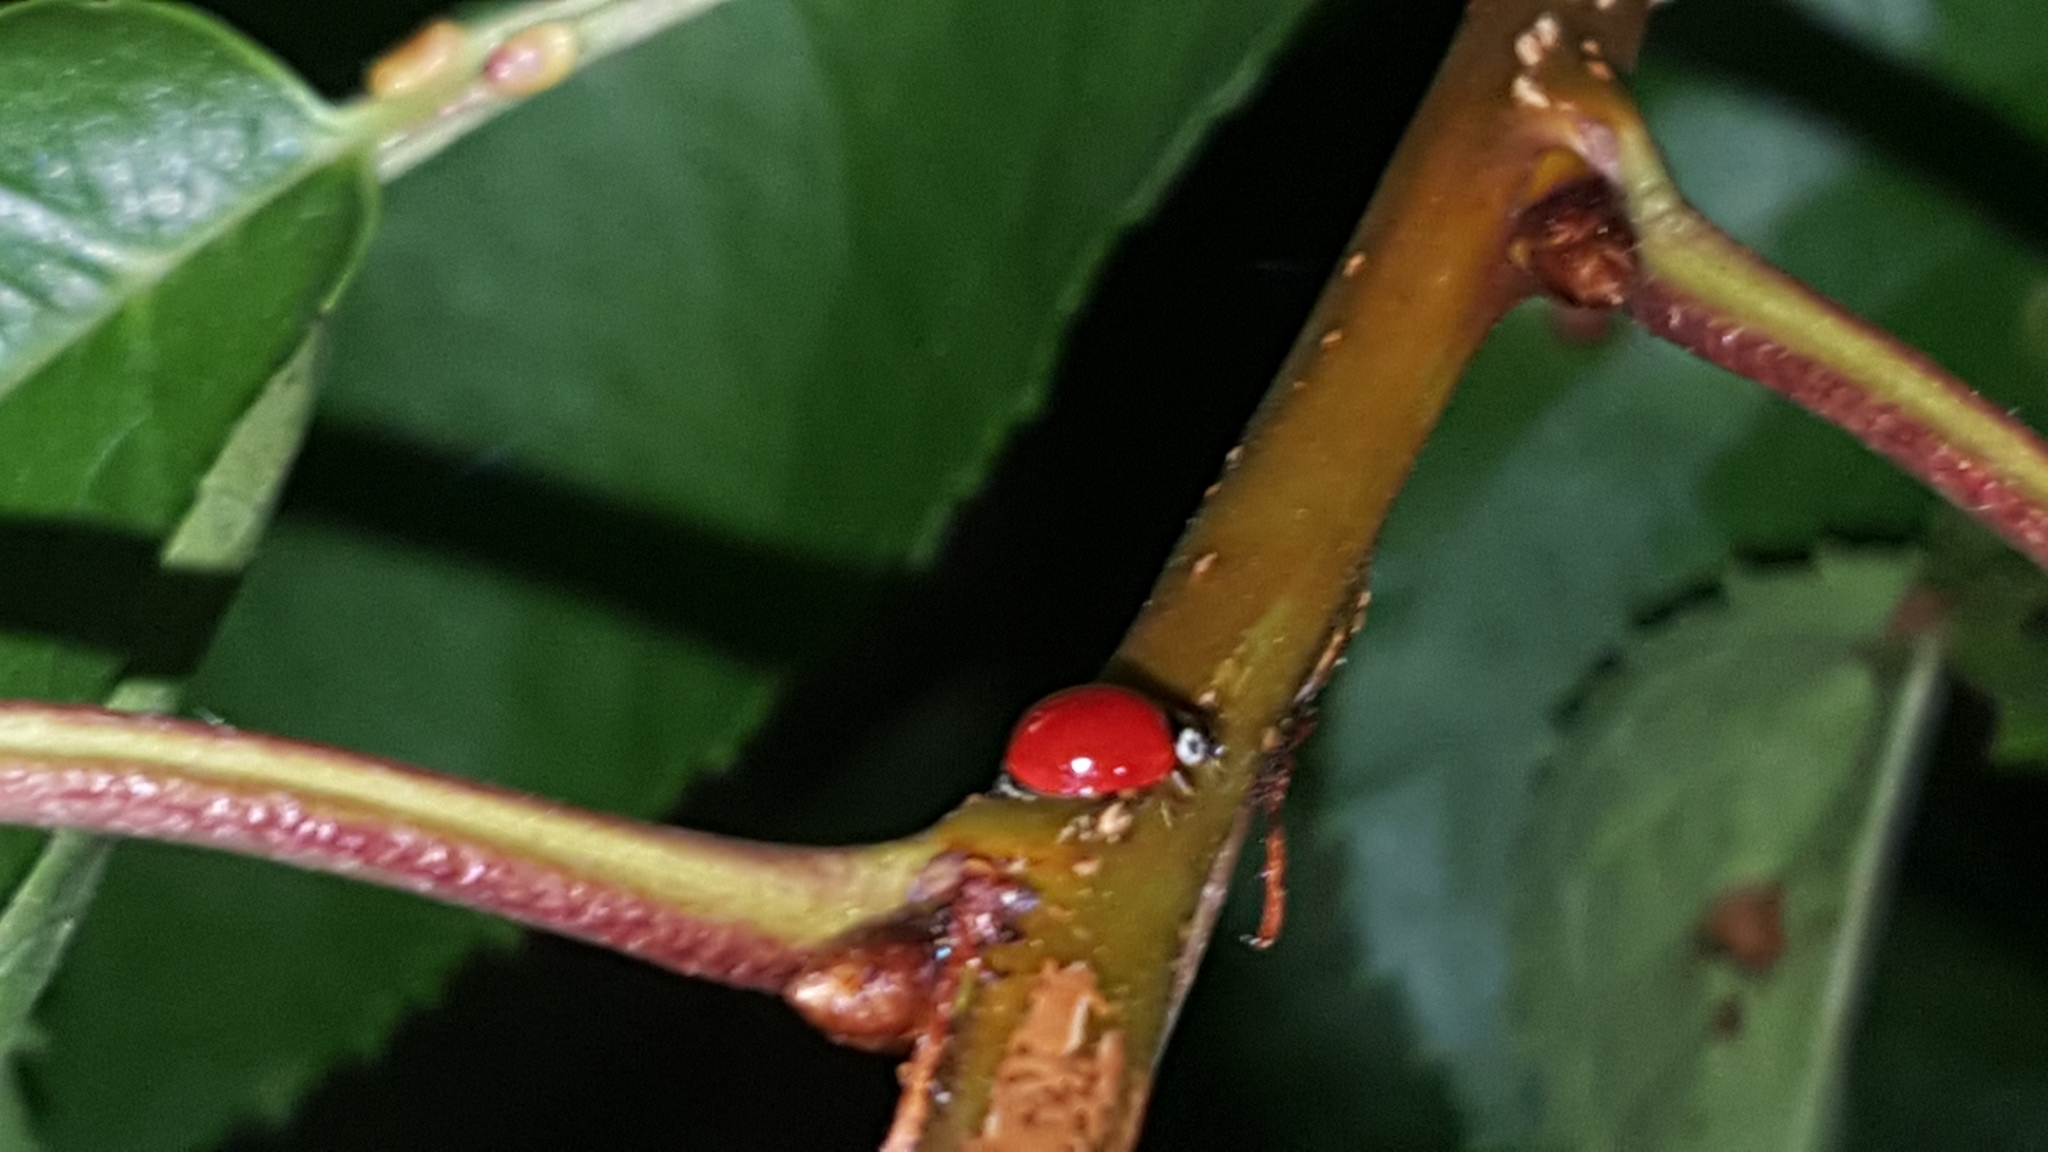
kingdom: Animalia
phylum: Arthropoda
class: Insecta
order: Coleoptera
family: Coccinellidae
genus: Cycloneda
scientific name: Cycloneda polita
